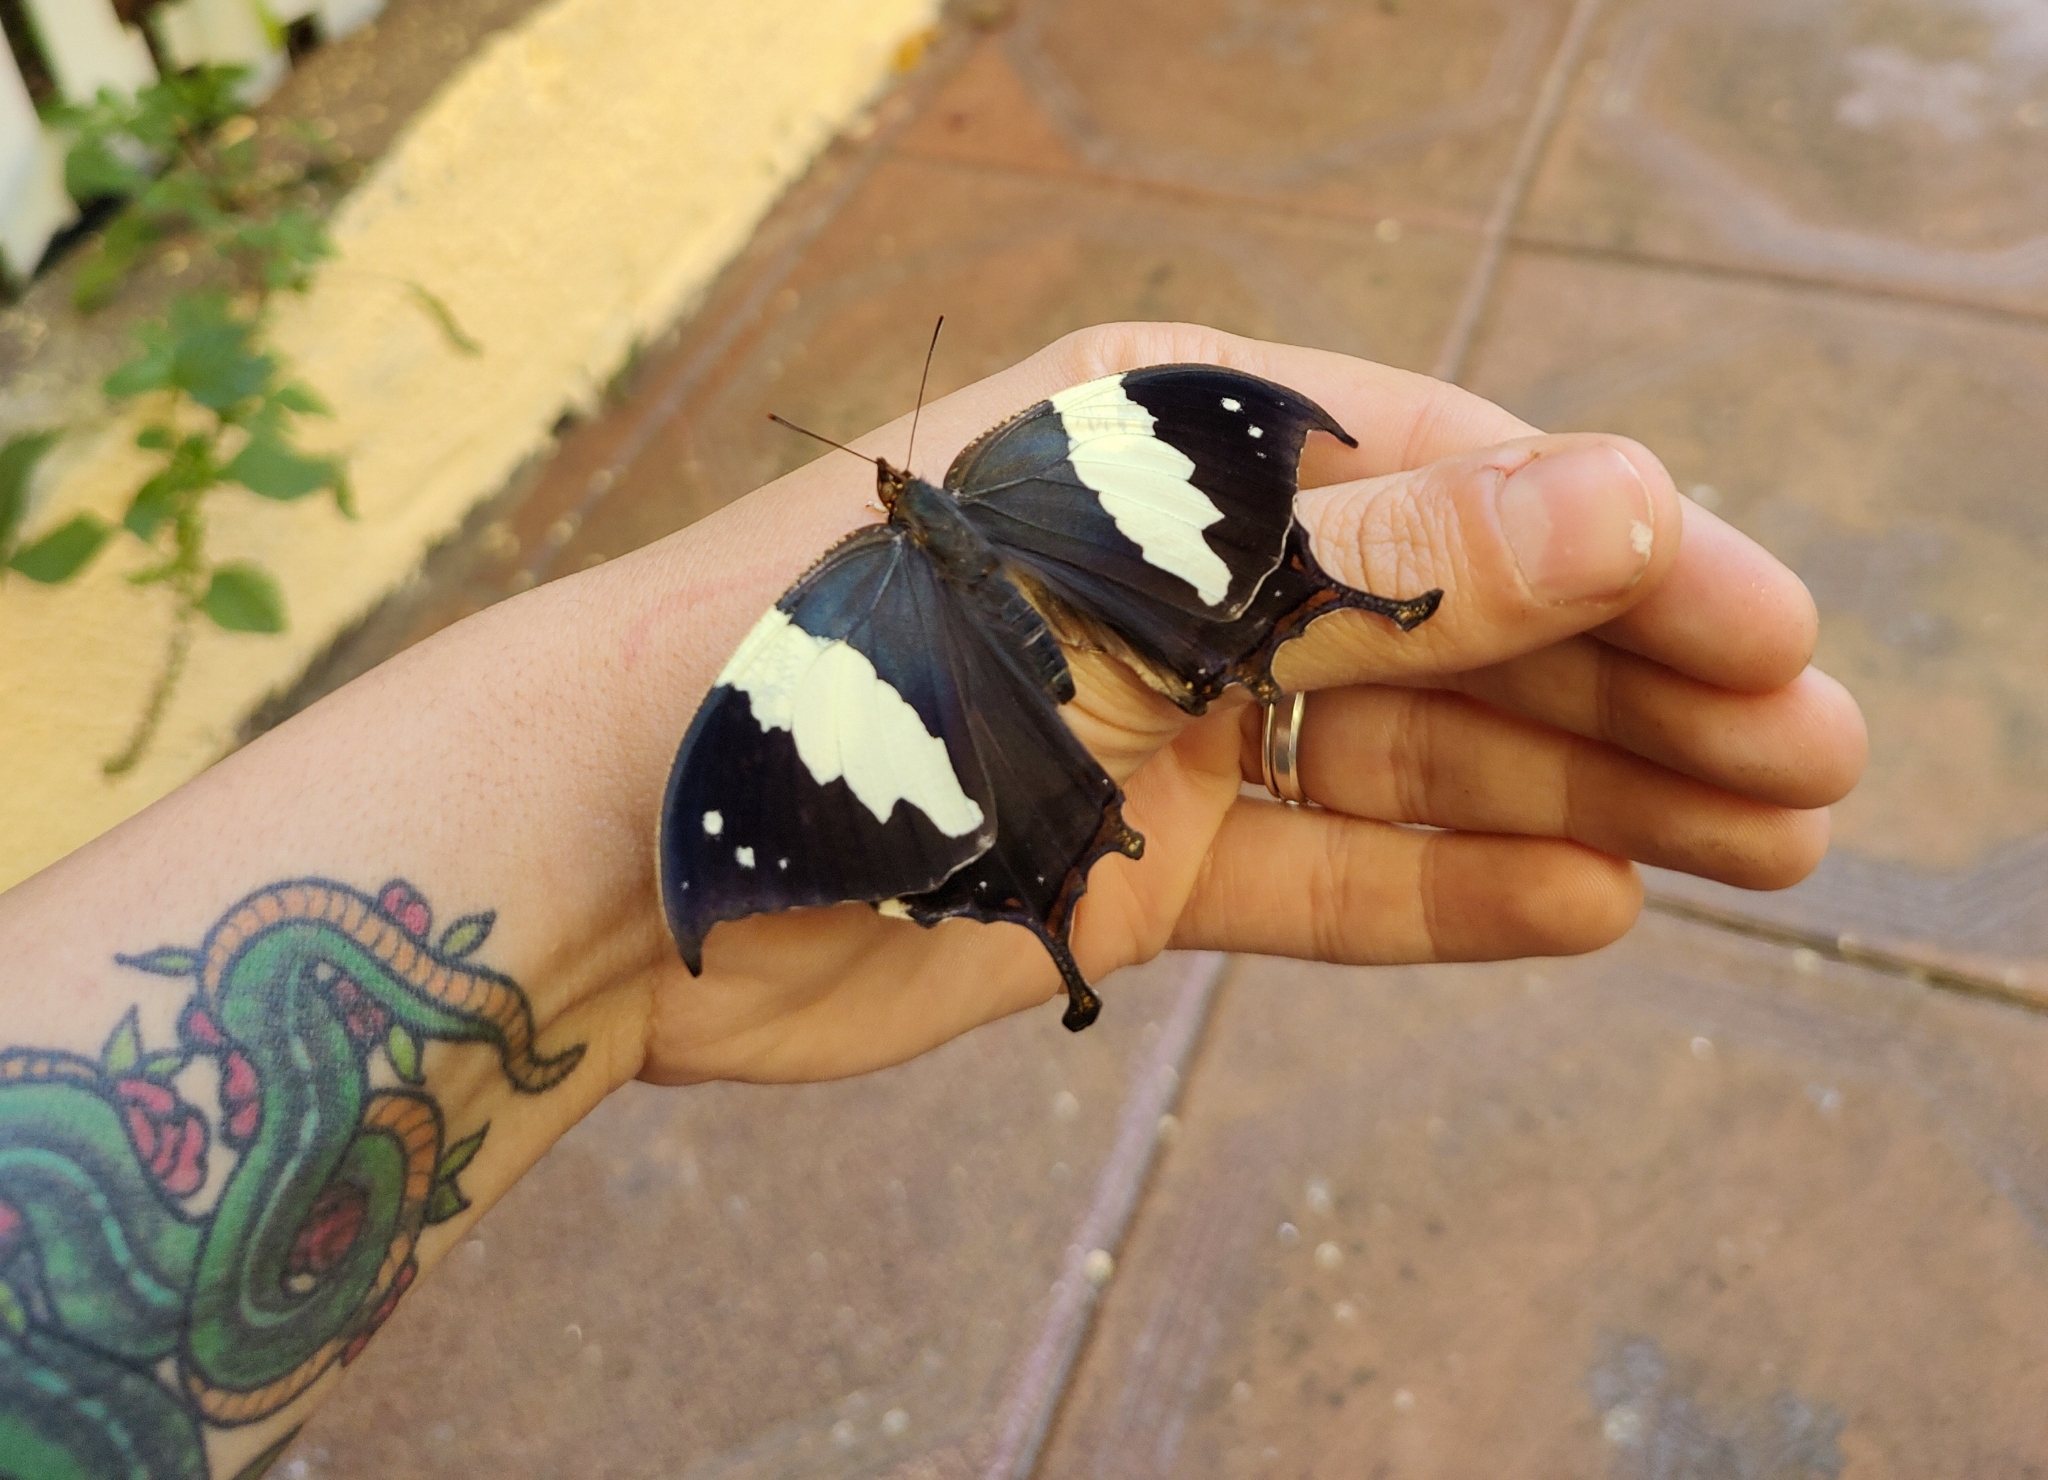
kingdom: Animalia
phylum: Arthropoda
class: Insecta
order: Lepidoptera
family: Nymphalidae
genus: Hypna
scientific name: Hypna clytemnestra
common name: Silver-studded leafwing
